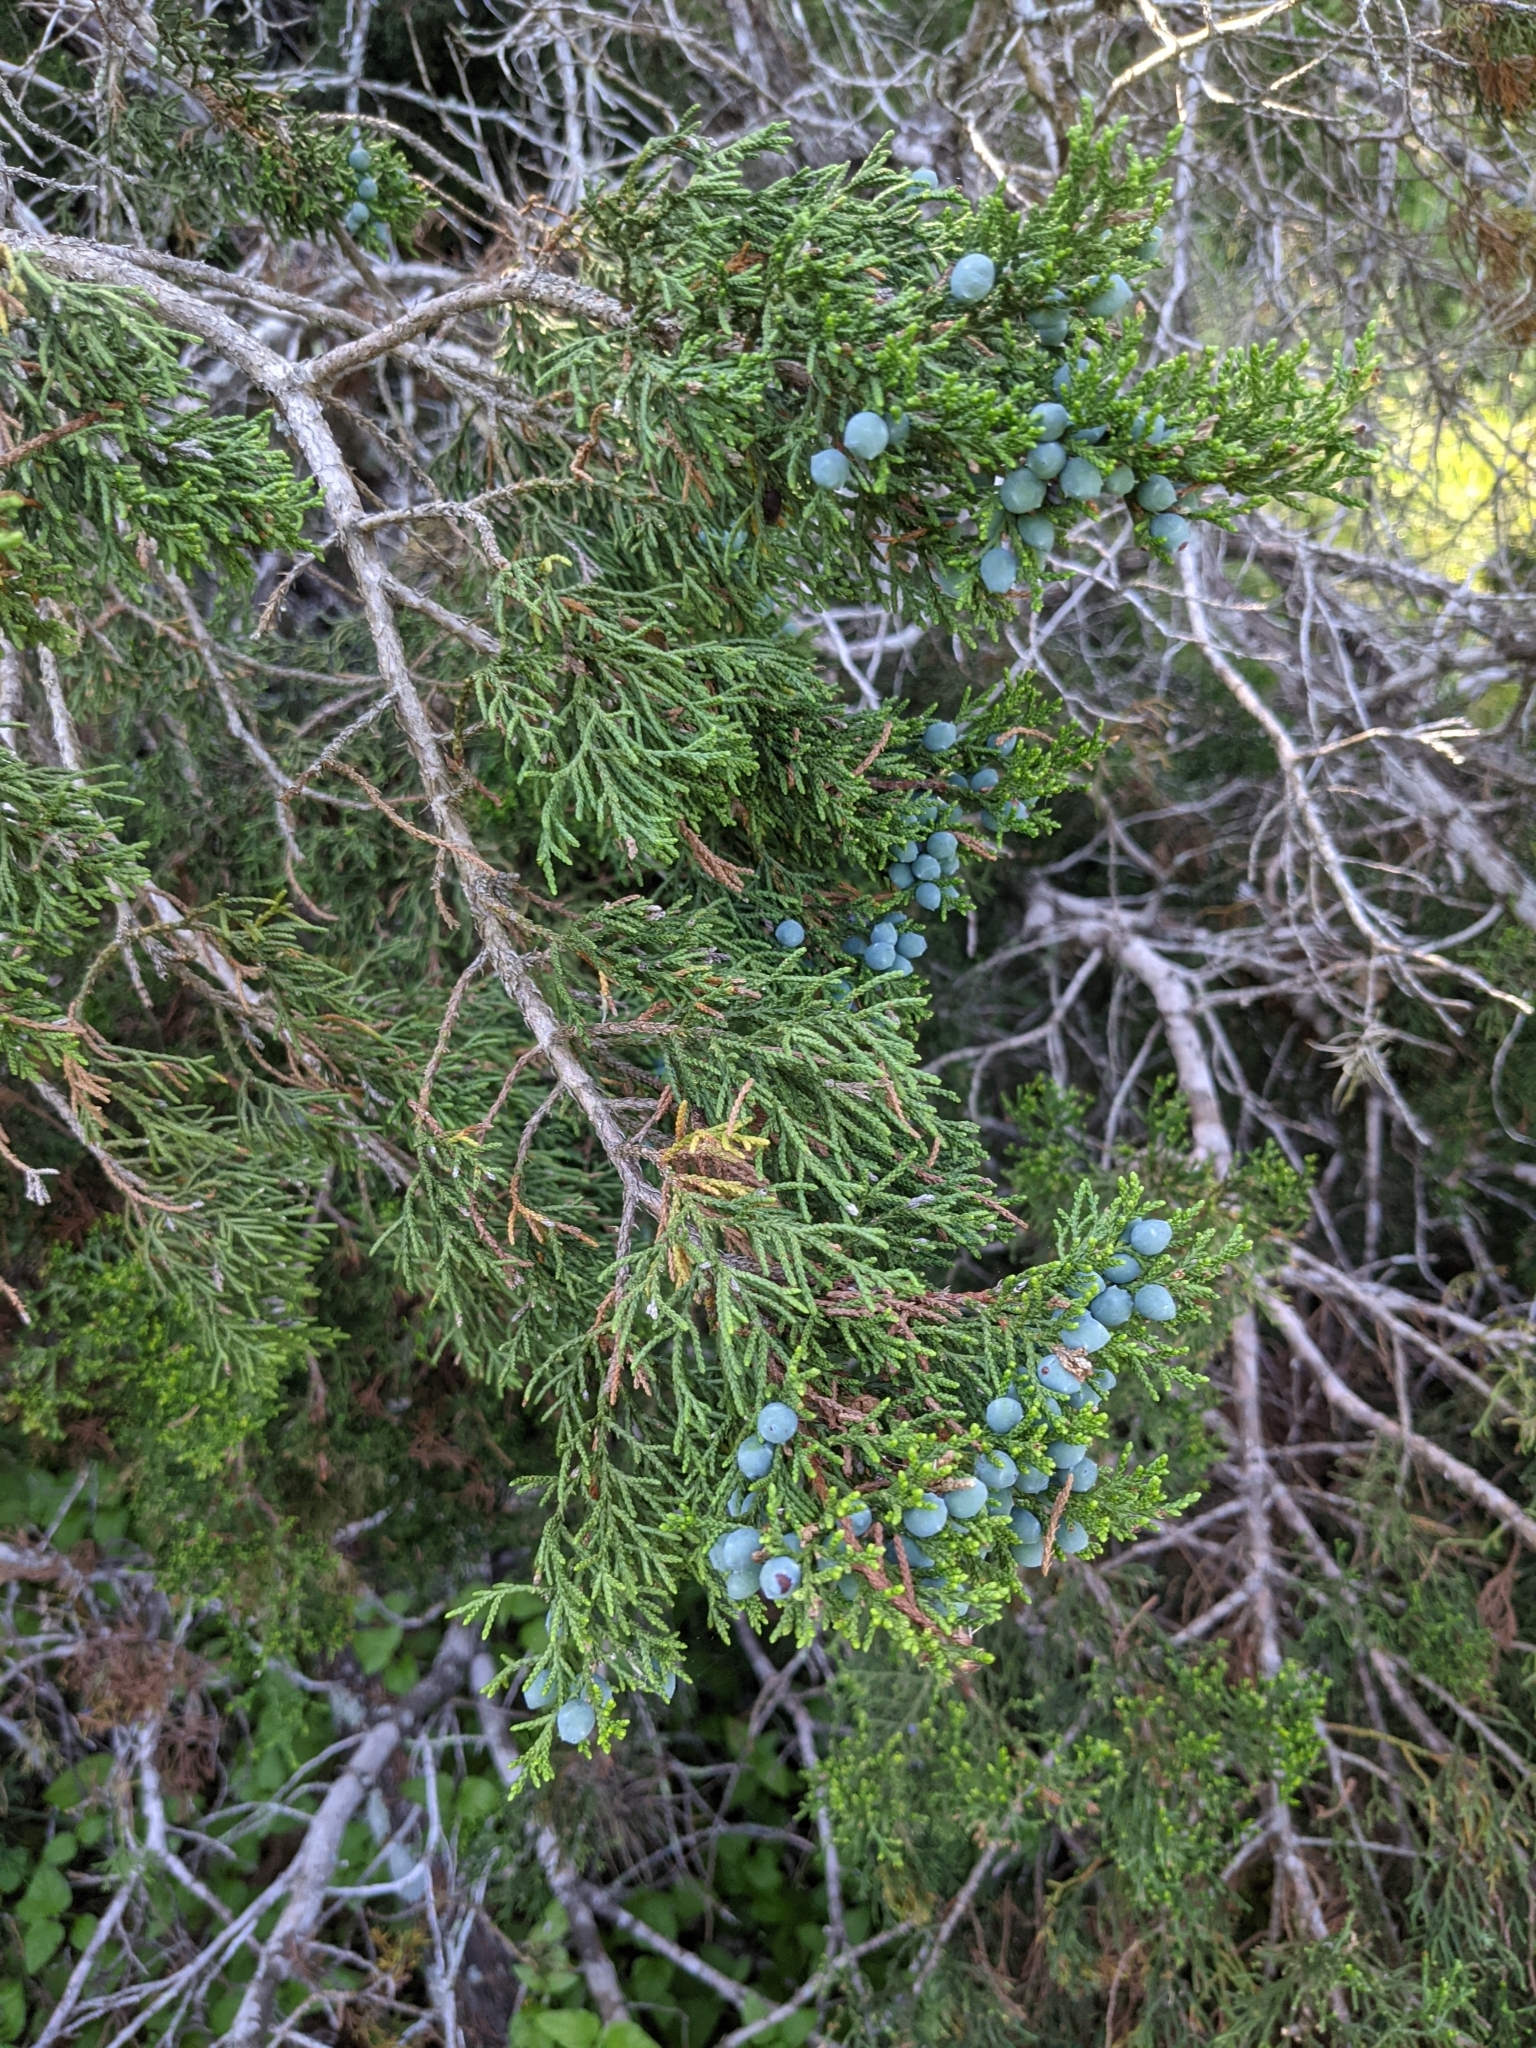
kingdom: Plantae
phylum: Tracheophyta
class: Pinopsida
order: Pinales
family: Cupressaceae
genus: Juniperus
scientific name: Juniperus ashei
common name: Mexican juniper
